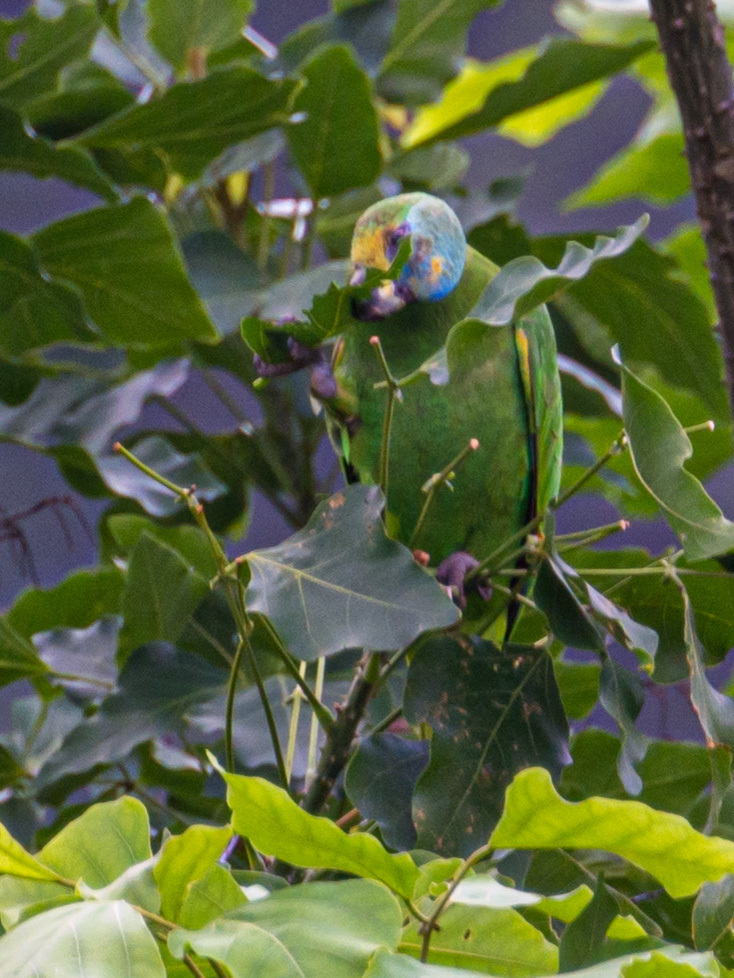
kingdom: Animalia
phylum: Chordata
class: Aves
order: Psittaciformes
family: Psittacidae
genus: Amazona
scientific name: Amazona amazonica
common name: Orange-winged amazon
